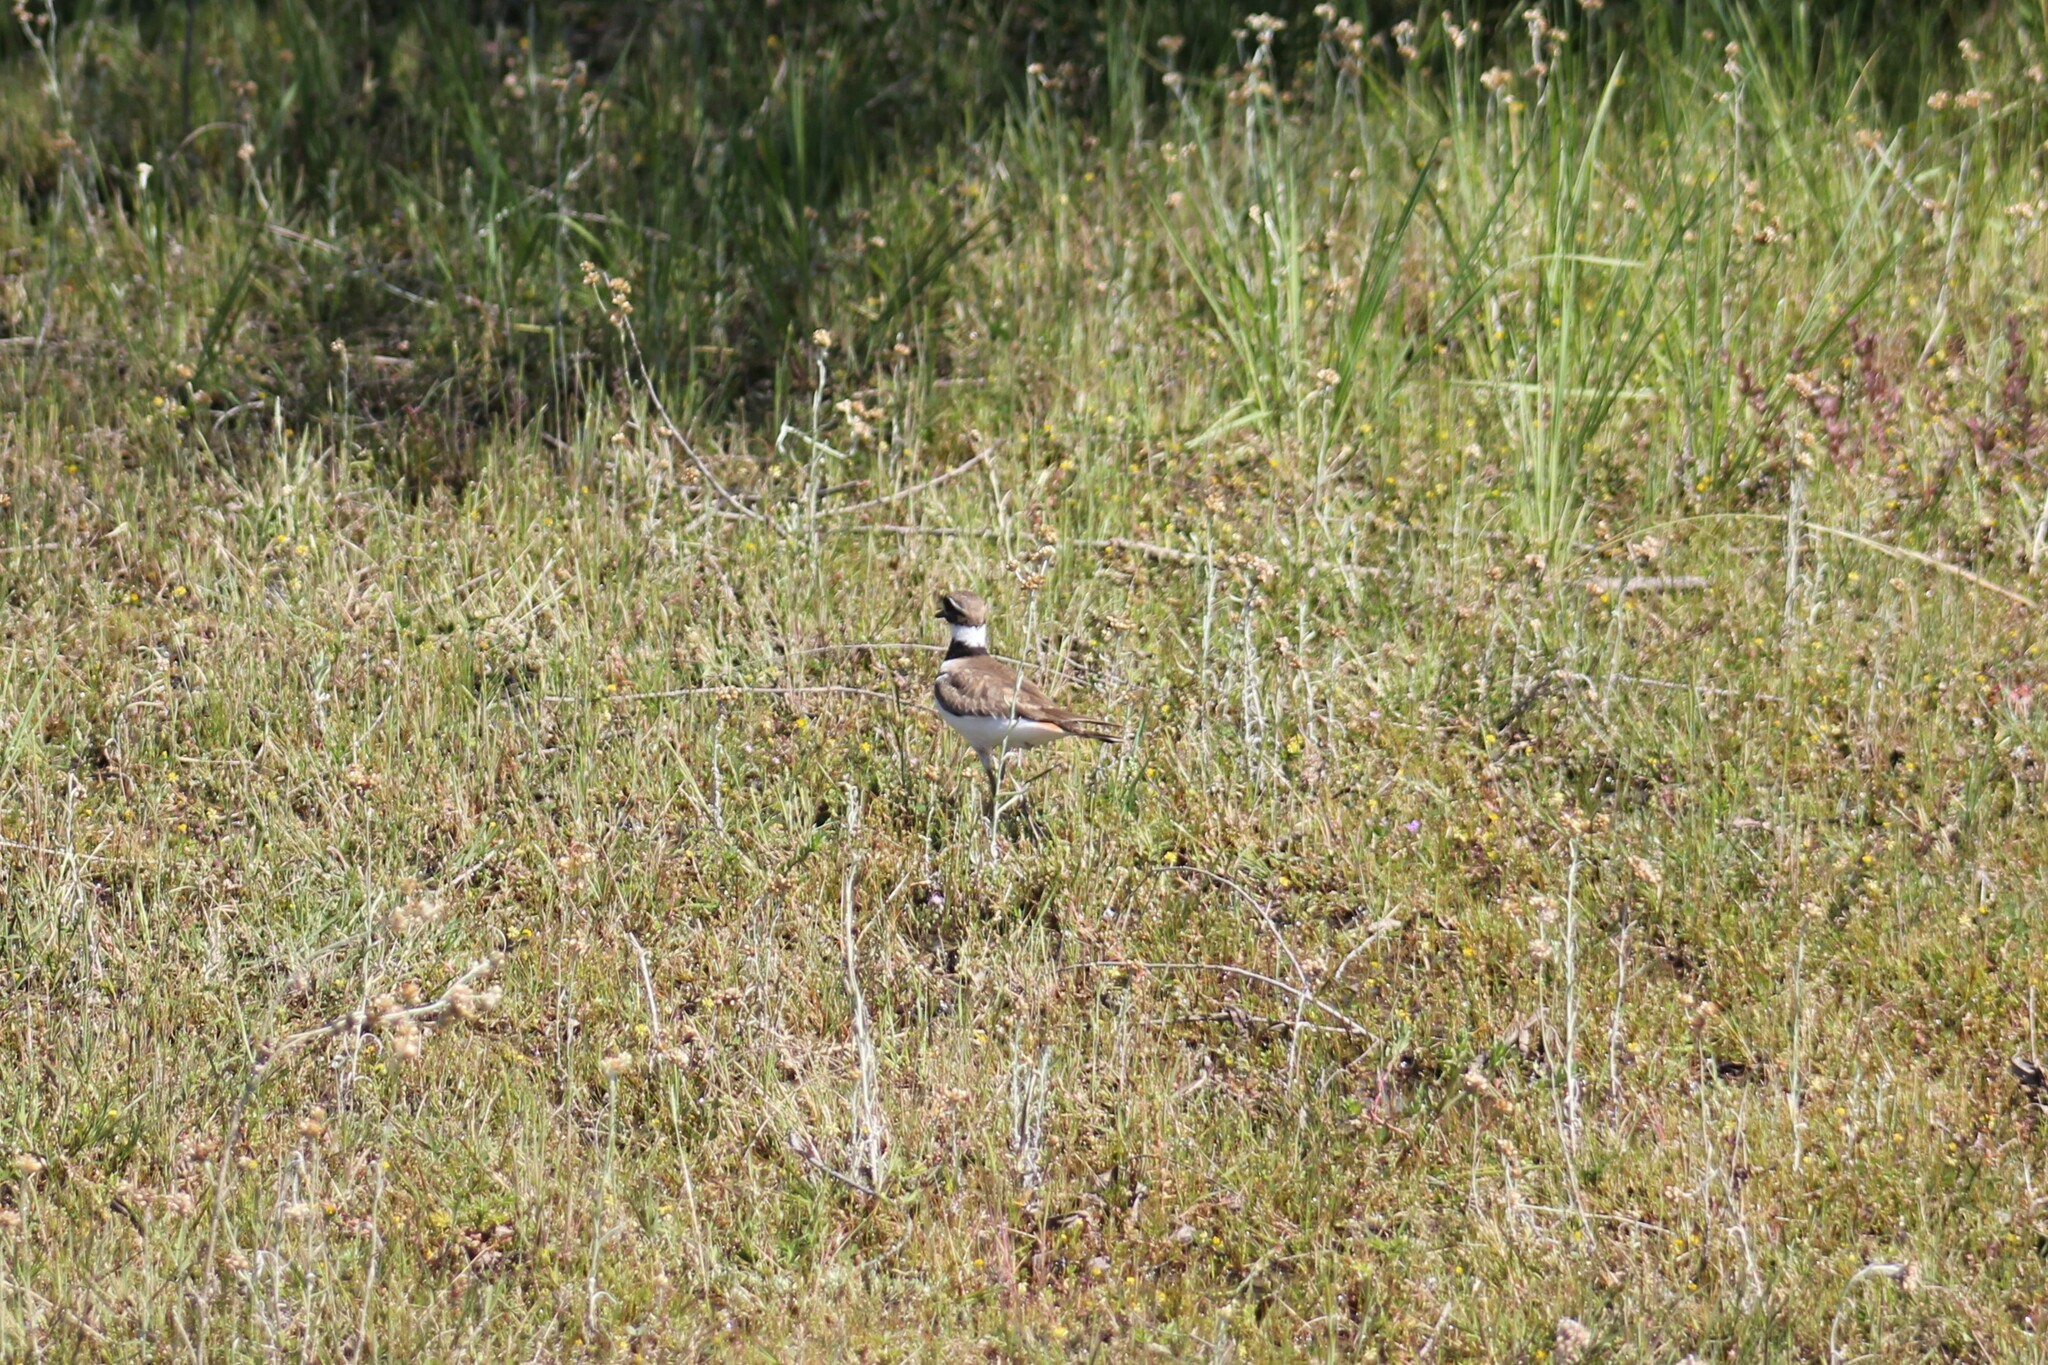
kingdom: Animalia
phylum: Chordata
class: Aves
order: Charadriiformes
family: Charadriidae
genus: Charadrius
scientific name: Charadrius vociferus
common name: Killdeer
